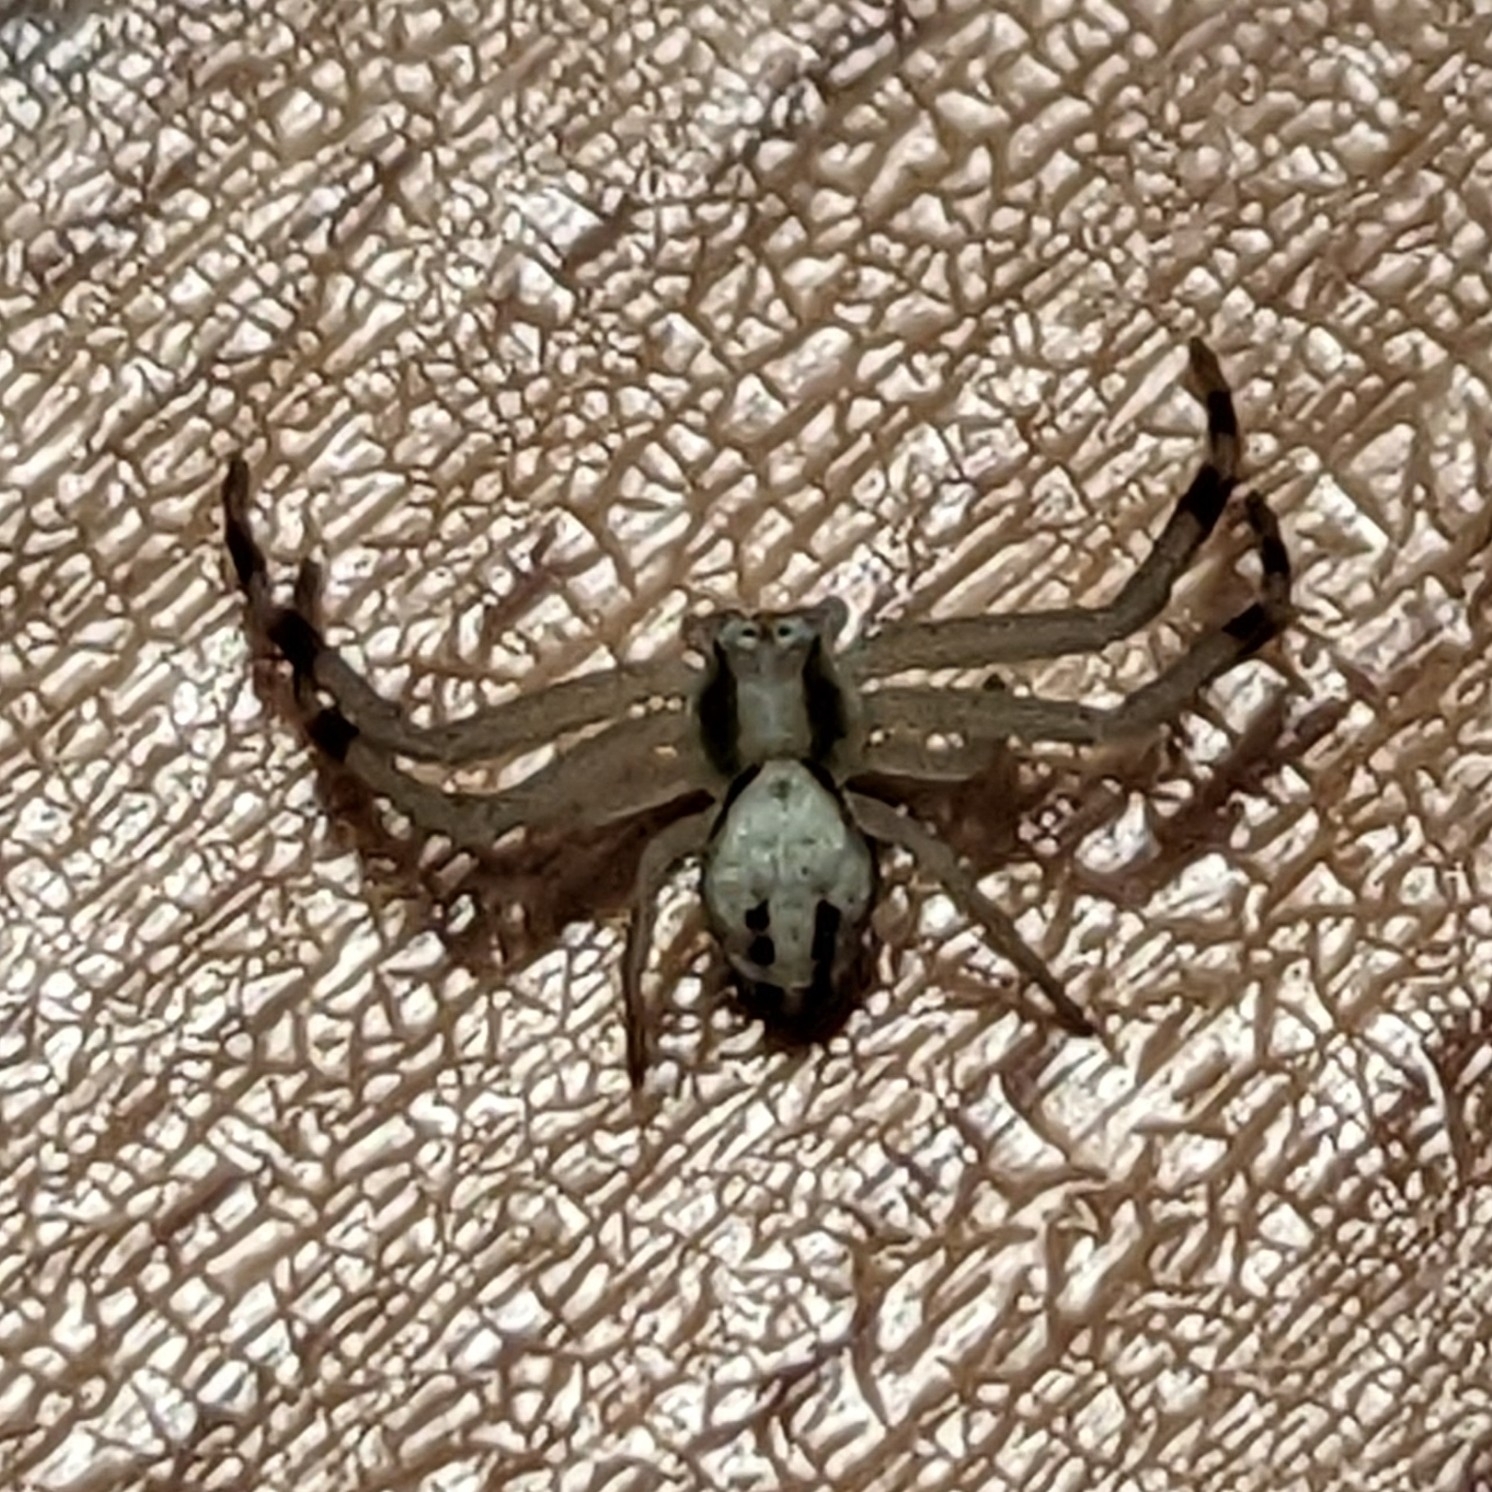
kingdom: Animalia
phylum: Arthropoda
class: Arachnida
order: Araneae
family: Thomisidae
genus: Misumena
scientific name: Misumena vatia
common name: Goldenrod crab spider
